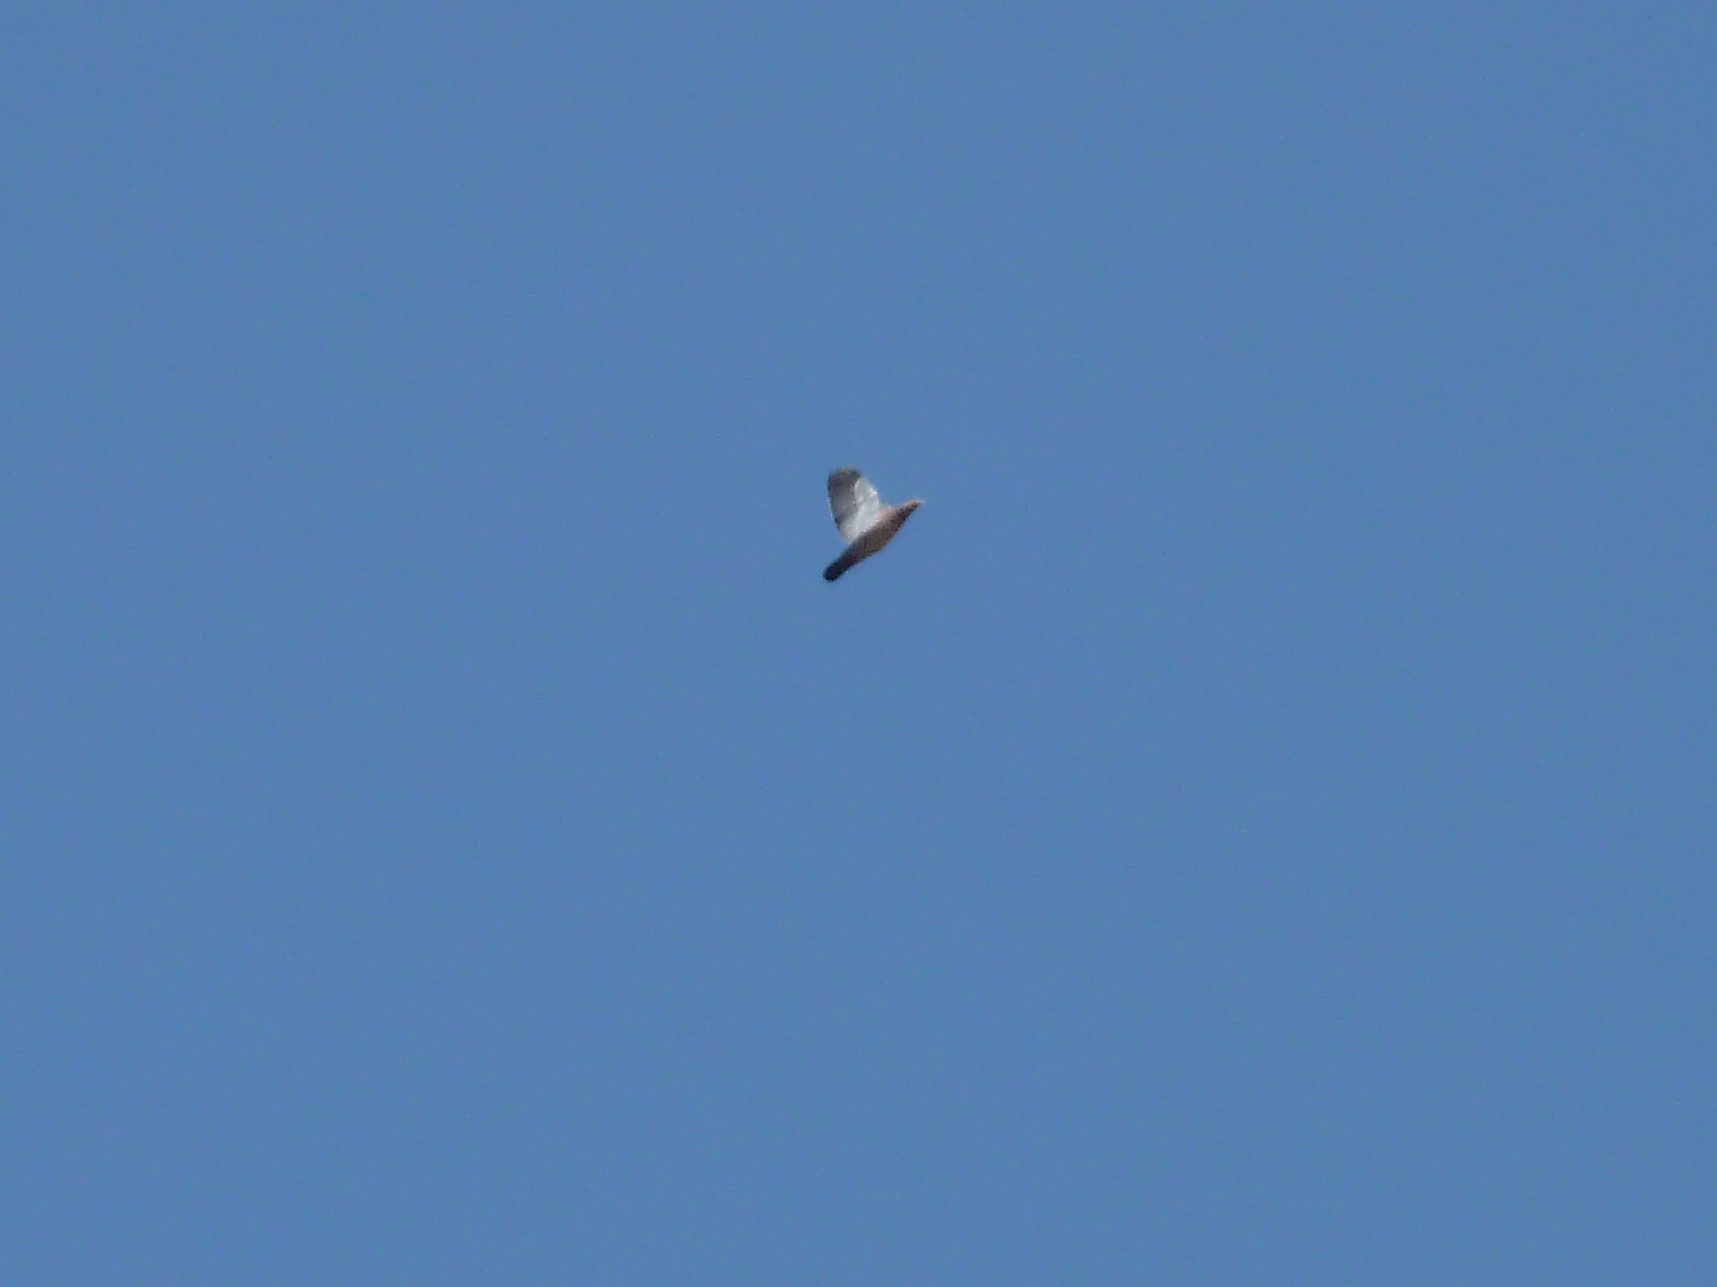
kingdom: Animalia
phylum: Chordata
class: Aves
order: Columbiformes
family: Columbidae
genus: Patagioenas
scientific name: Patagioenas picazuro
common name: Picazuro pigeon
